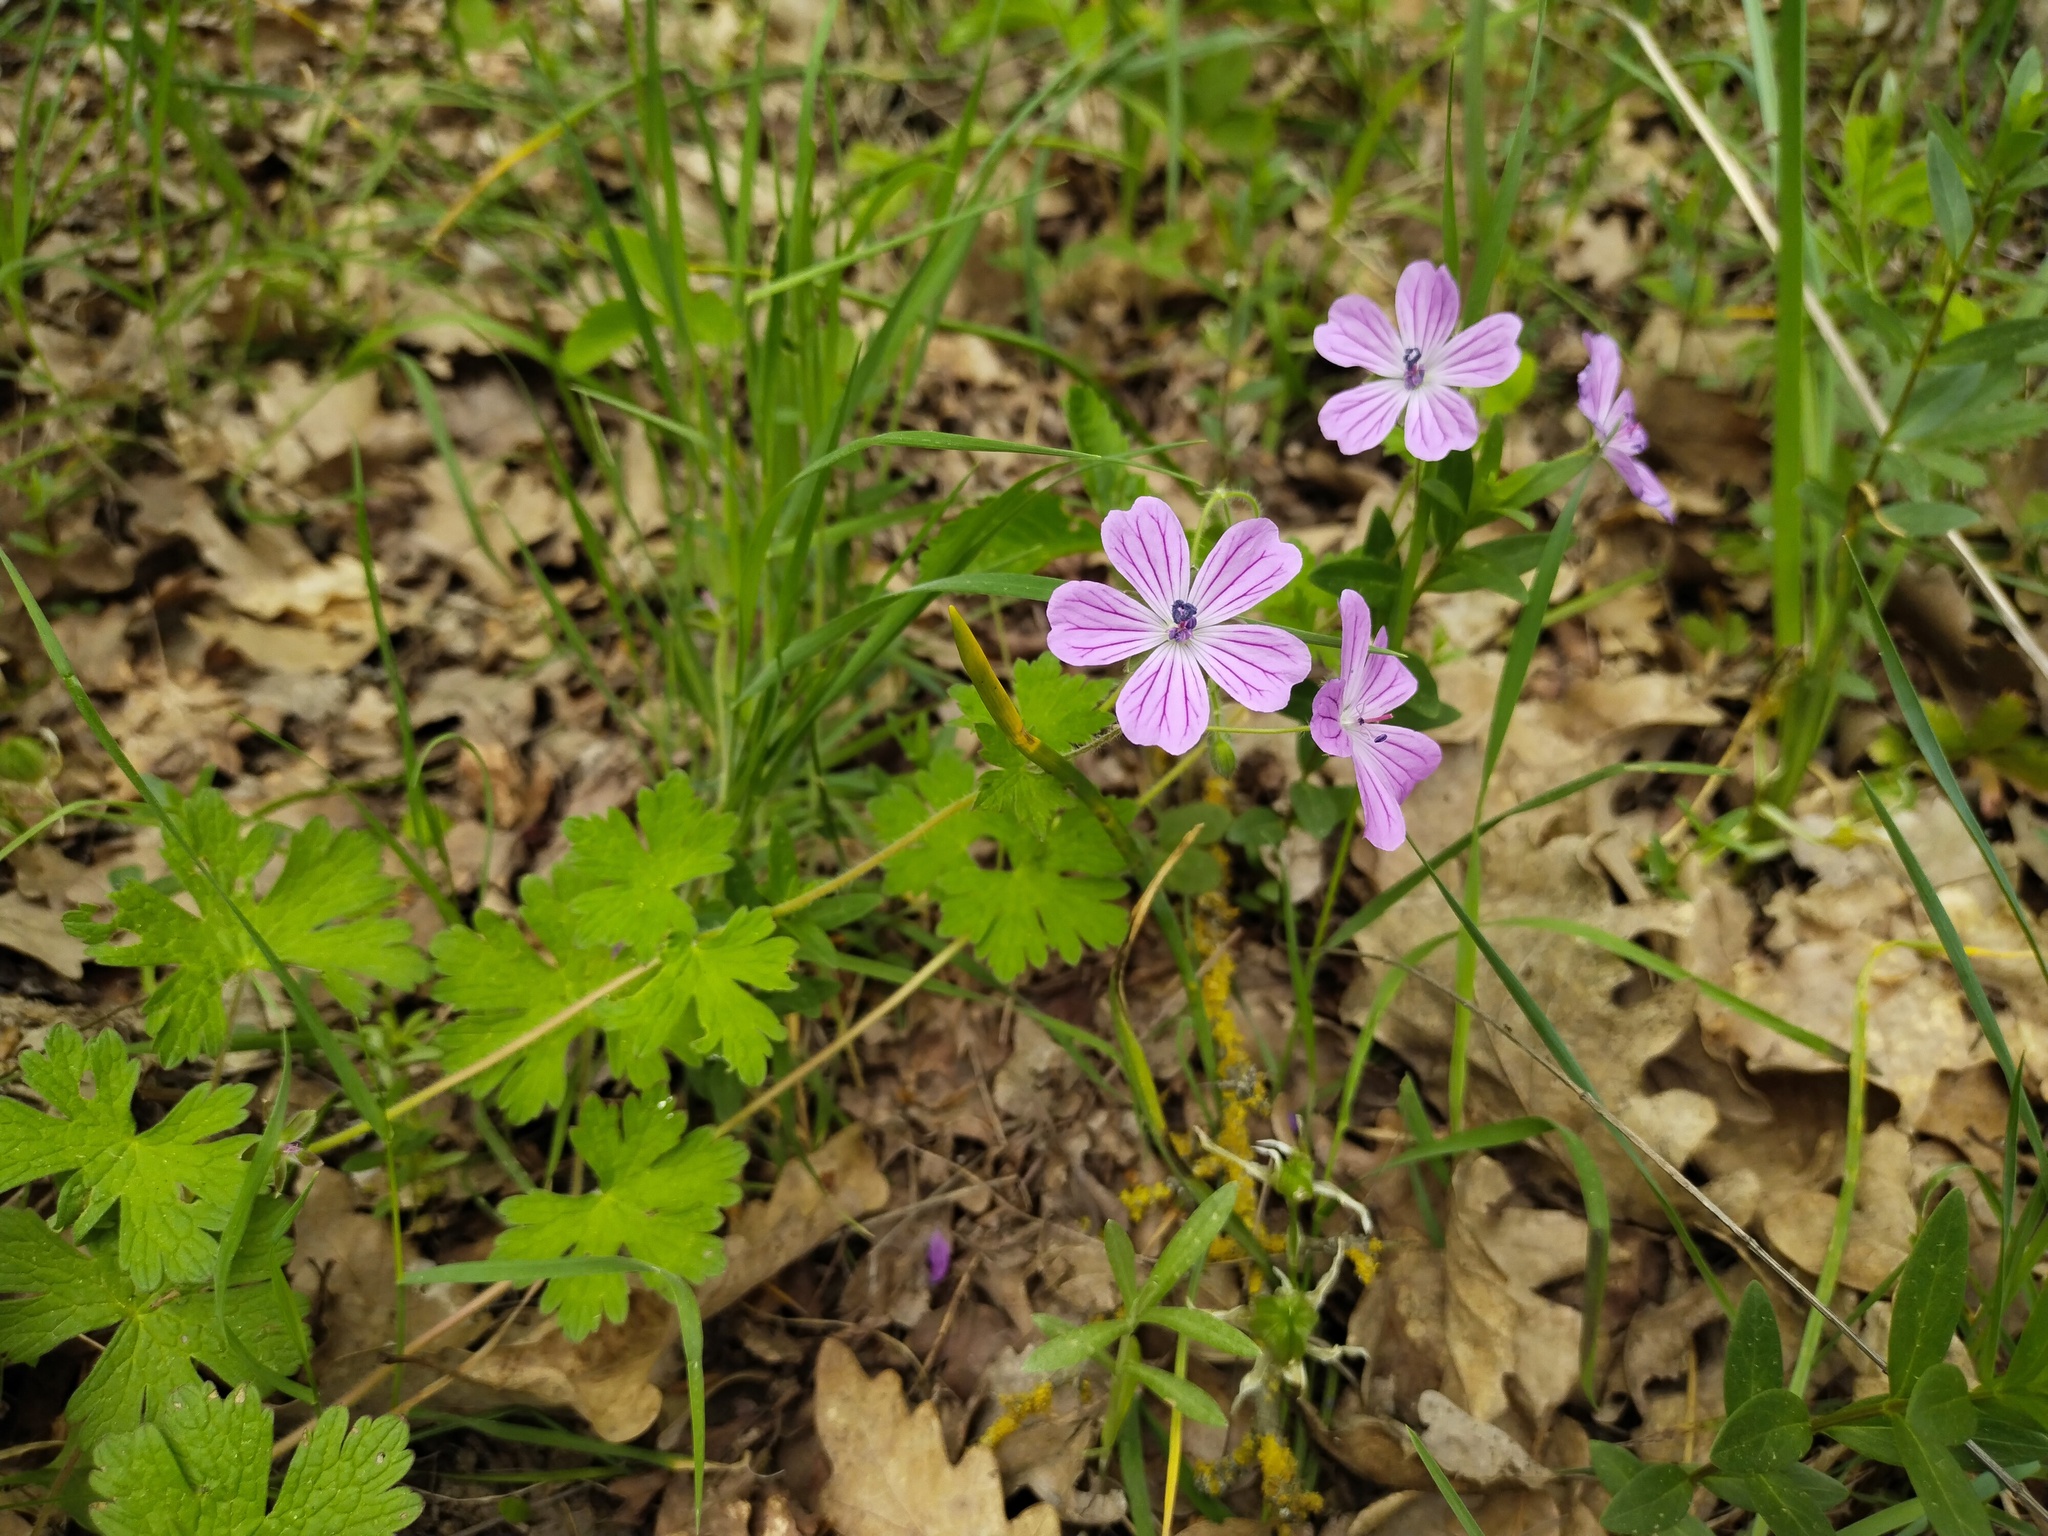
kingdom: Plantae
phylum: Tracheophyta
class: Magnoliopsida
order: Geraniales
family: Geraniaceae
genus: Geranium
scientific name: Geranium albanum
